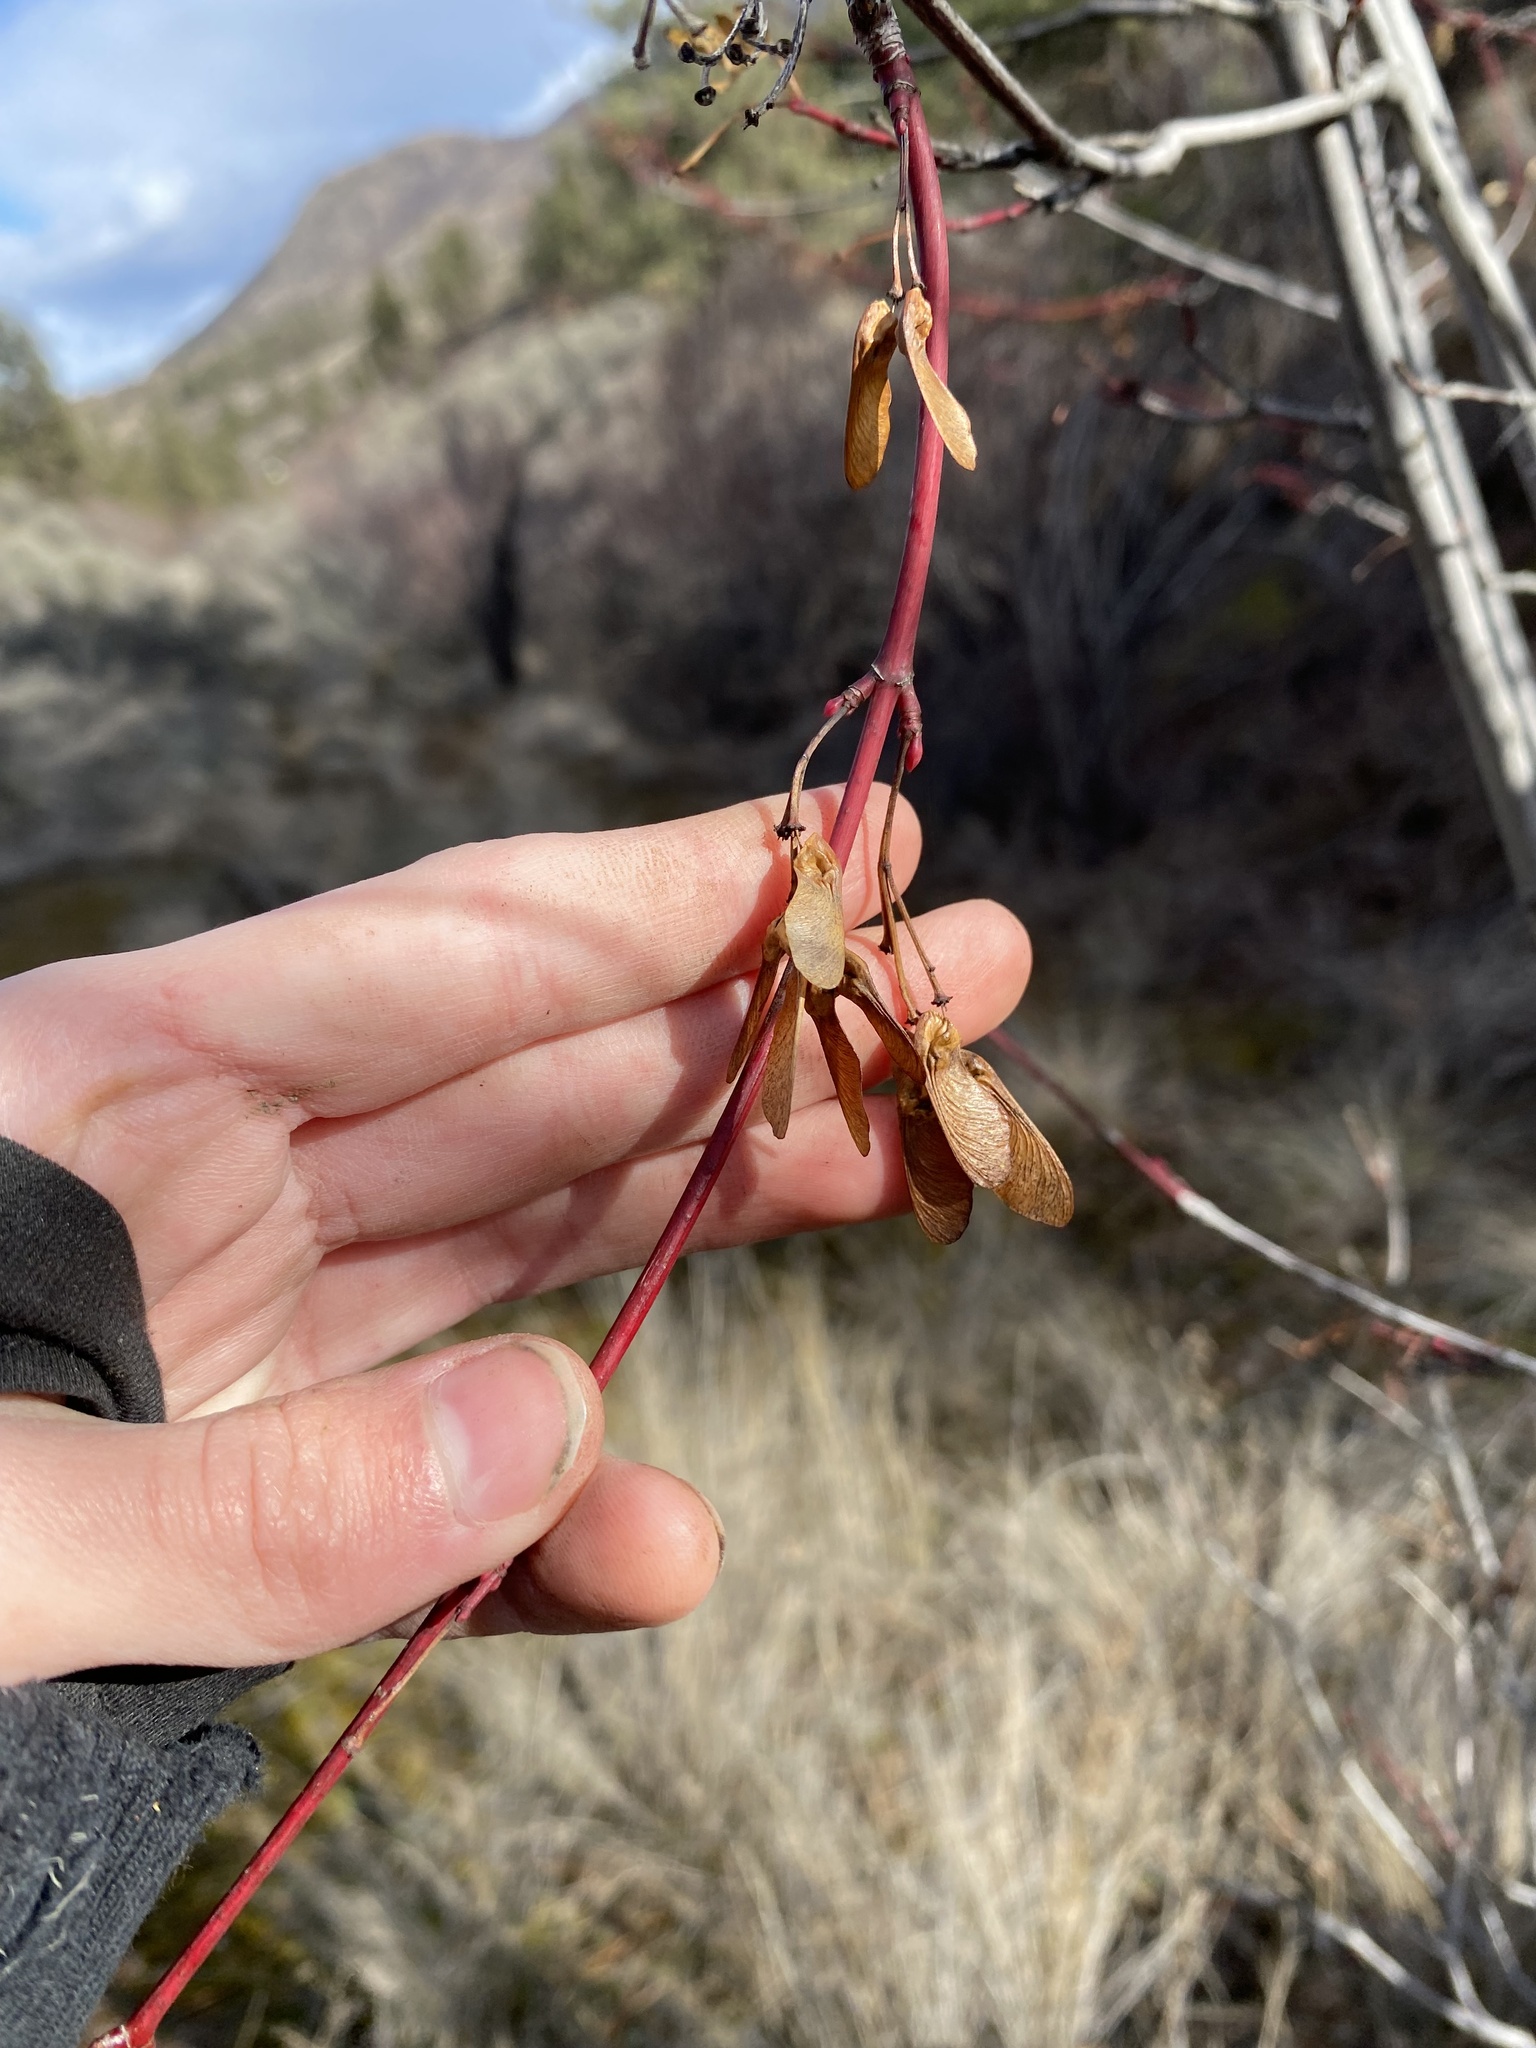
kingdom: Plantae
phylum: Tracheophyta
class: Magnoliopsida
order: Sapindales
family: Sapindaceae
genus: Acer
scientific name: Acer glabrum
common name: Rocky mountain maple
